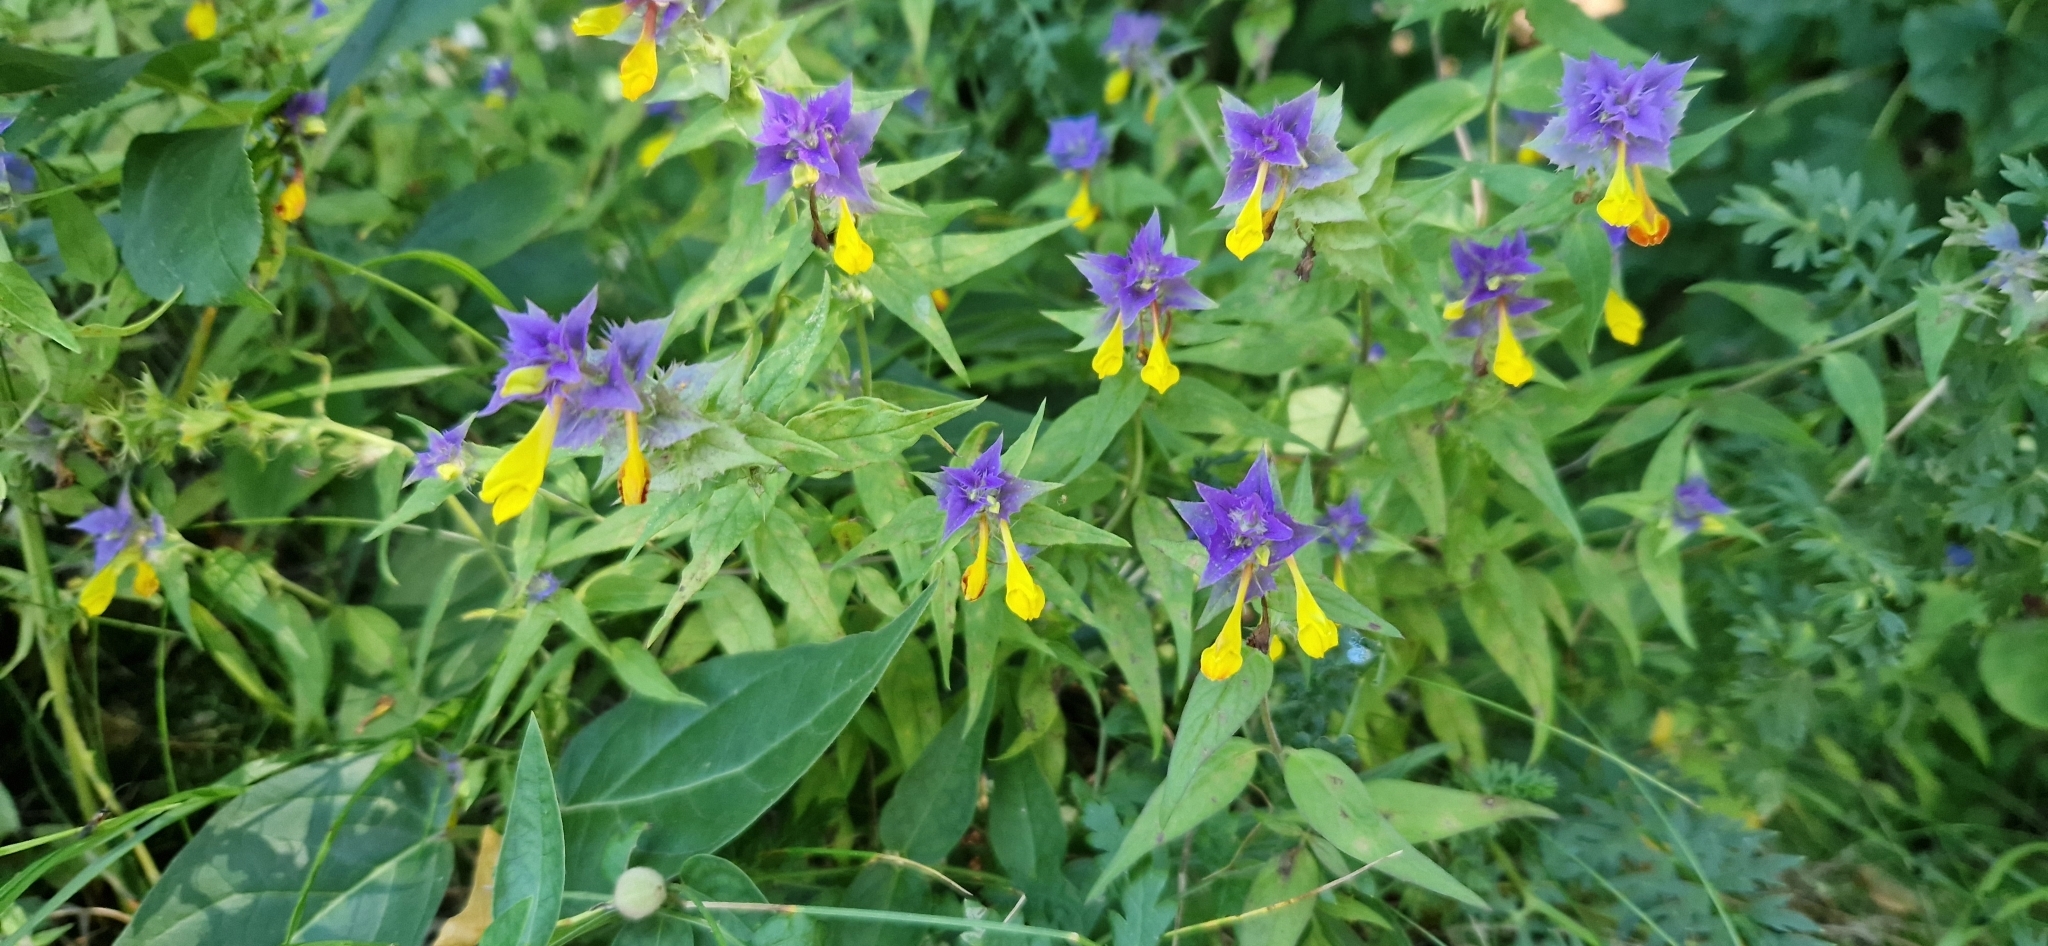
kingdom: Plantae
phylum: Tracheophyta
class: Magnoliopsida
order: Lamiales
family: Orobanchaceae
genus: Melampyrum
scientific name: Melampyrum nemorosum
